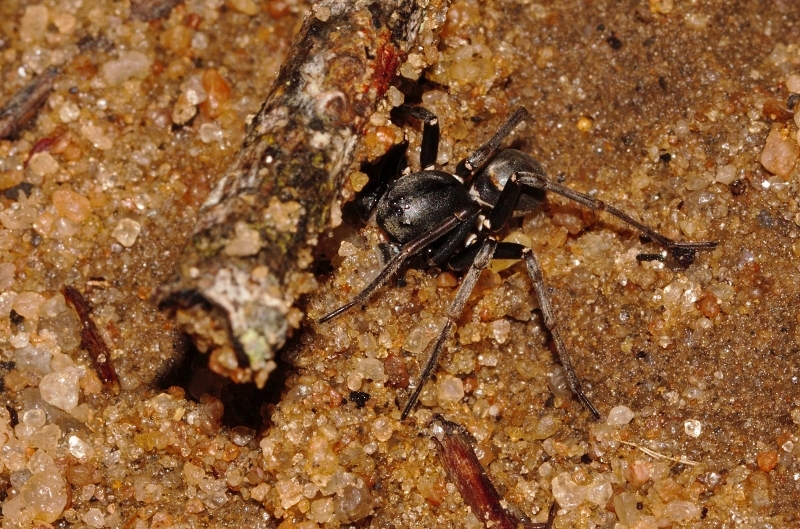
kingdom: Animalia
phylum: Arthropoda
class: Arachnida
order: Araneae
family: Zodariidae
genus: Hermippus
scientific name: Hermippus loricatus
